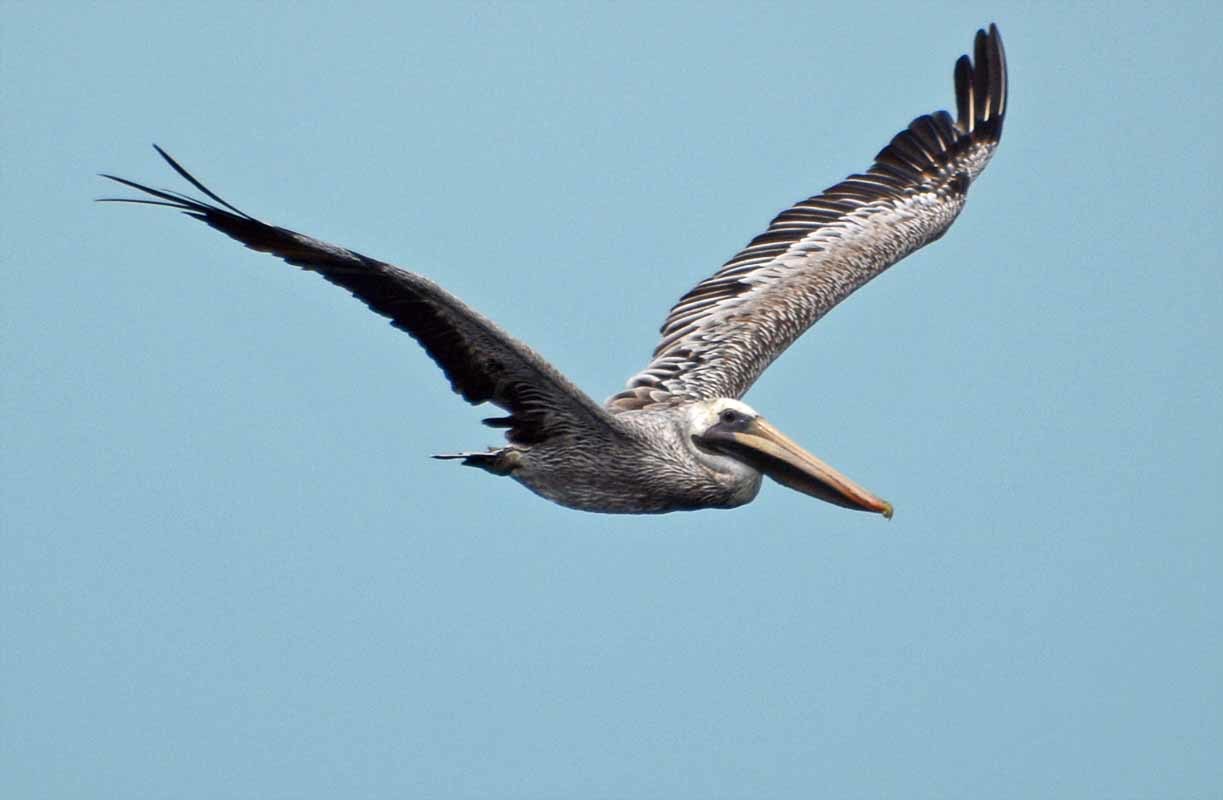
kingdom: Animalia
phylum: Chordata
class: Aves
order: Pelecaniformes
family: Pelecanidae
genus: Pelecanus
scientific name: Pelecanus occidentalis
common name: Brown pelican
